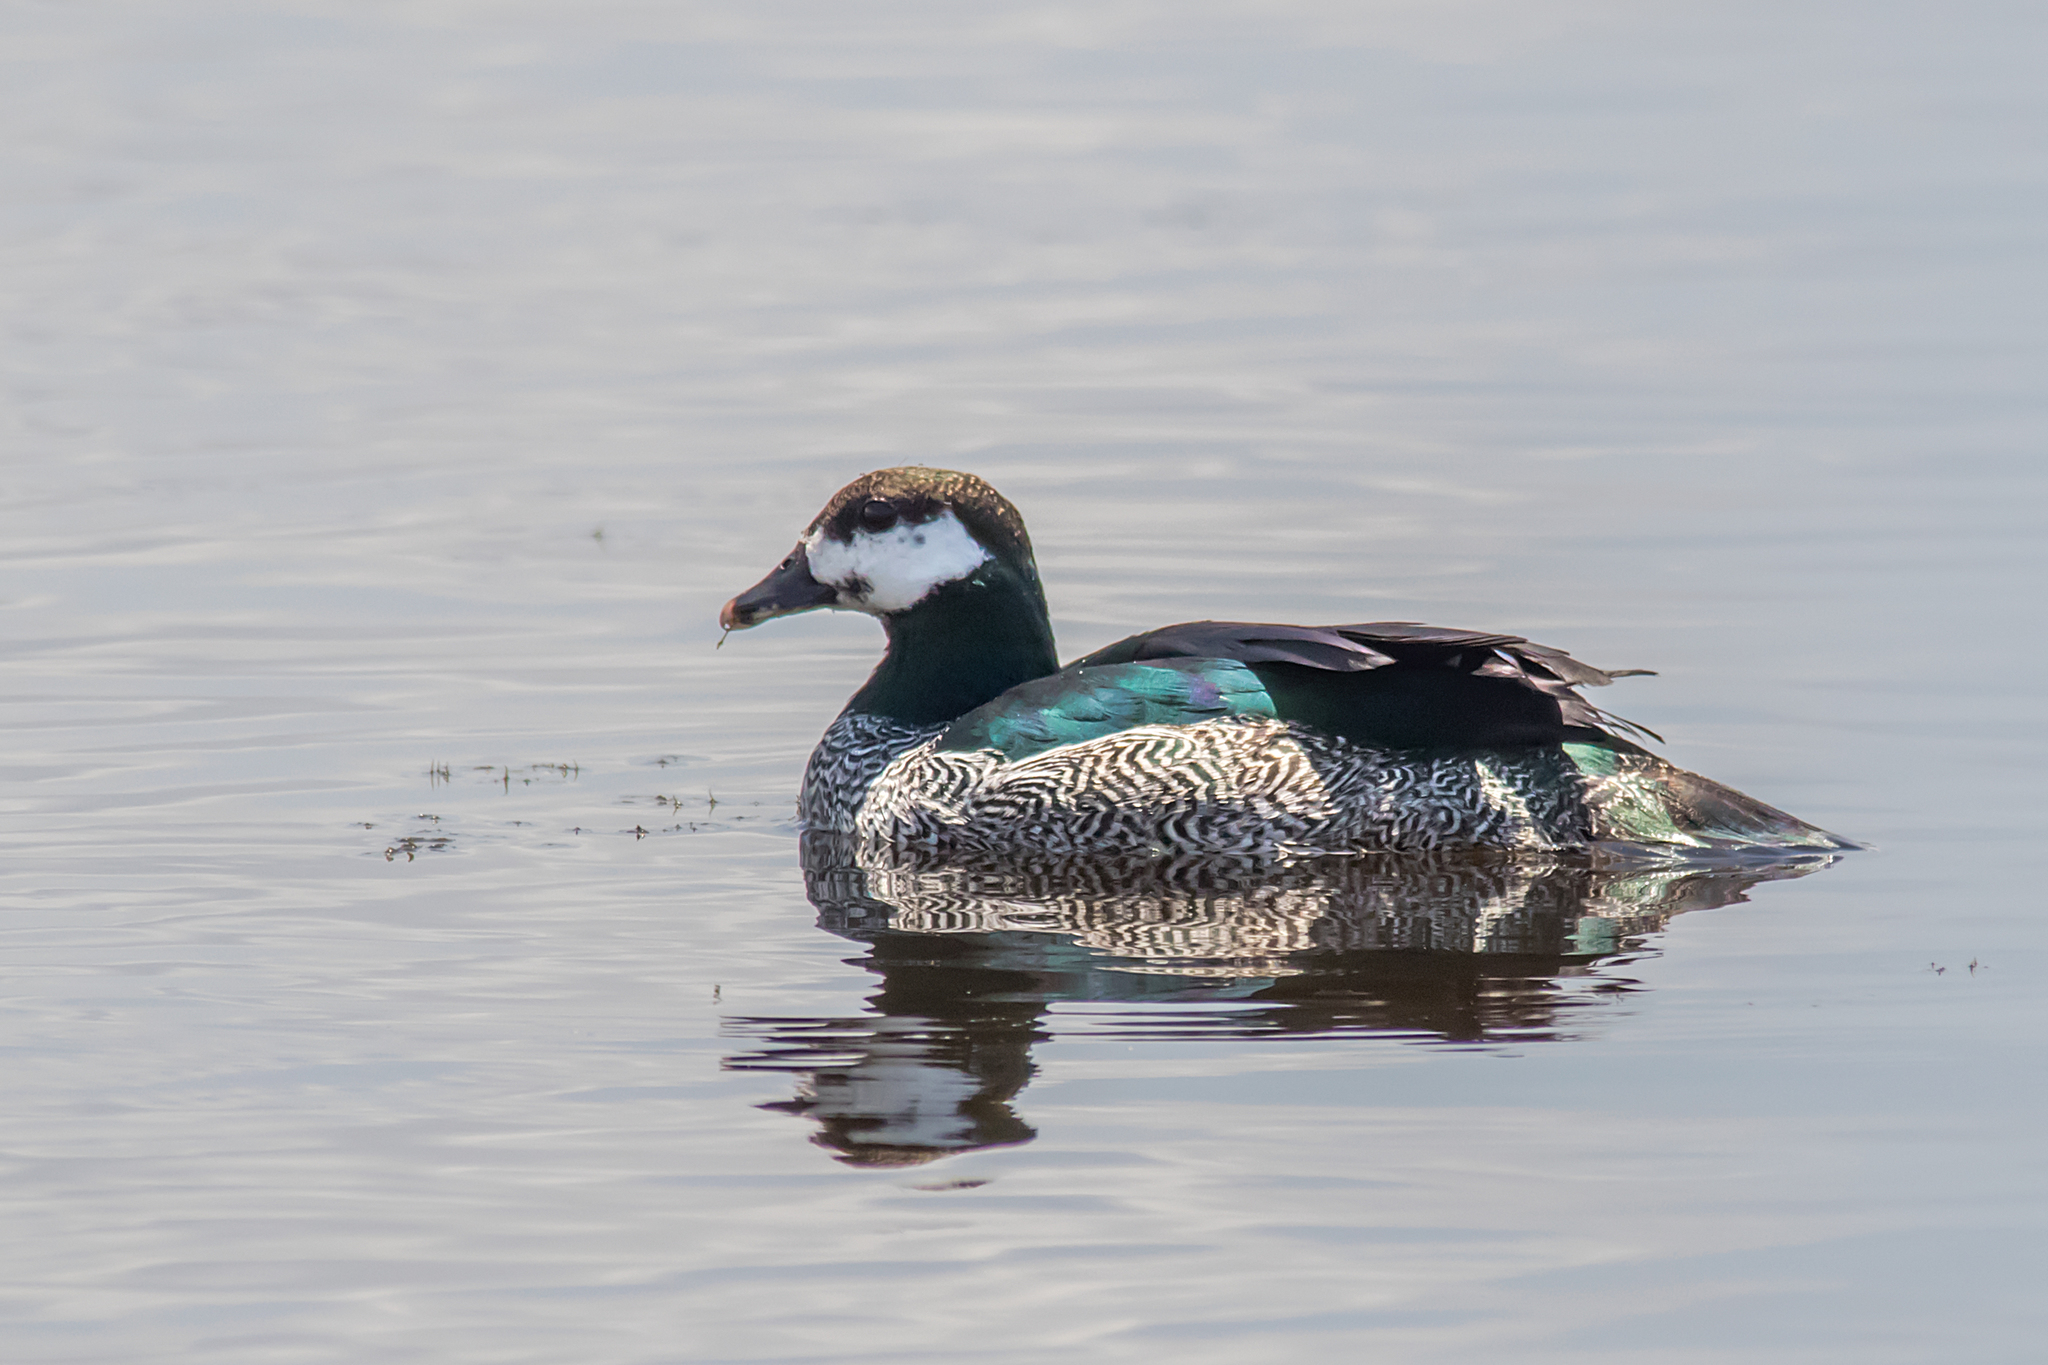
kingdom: Animalia
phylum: Chordata
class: Aves
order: Anseriformes
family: Anatidae
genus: Nettapus
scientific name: Nettapus pulchellus
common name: Green pygmy-goose
